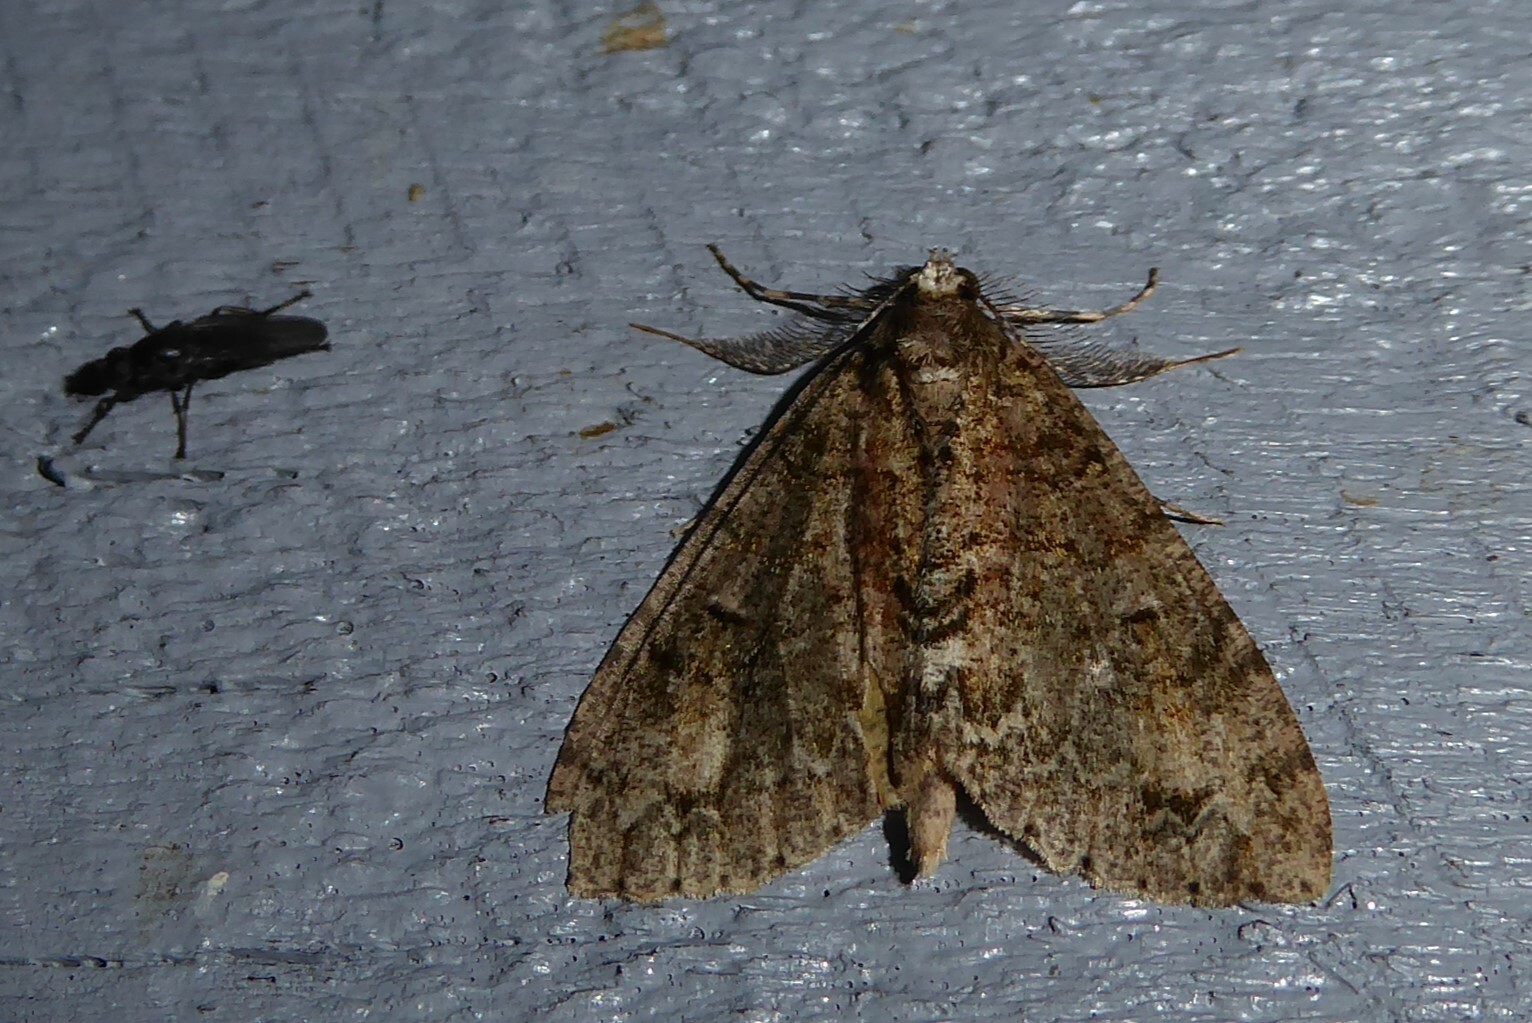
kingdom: Animalia
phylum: Arthropoda
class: Insecta
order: Lepidoptera
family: Geometridae
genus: Pseudocoremia
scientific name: Pseudocoremia suavis
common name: Common forest looper
